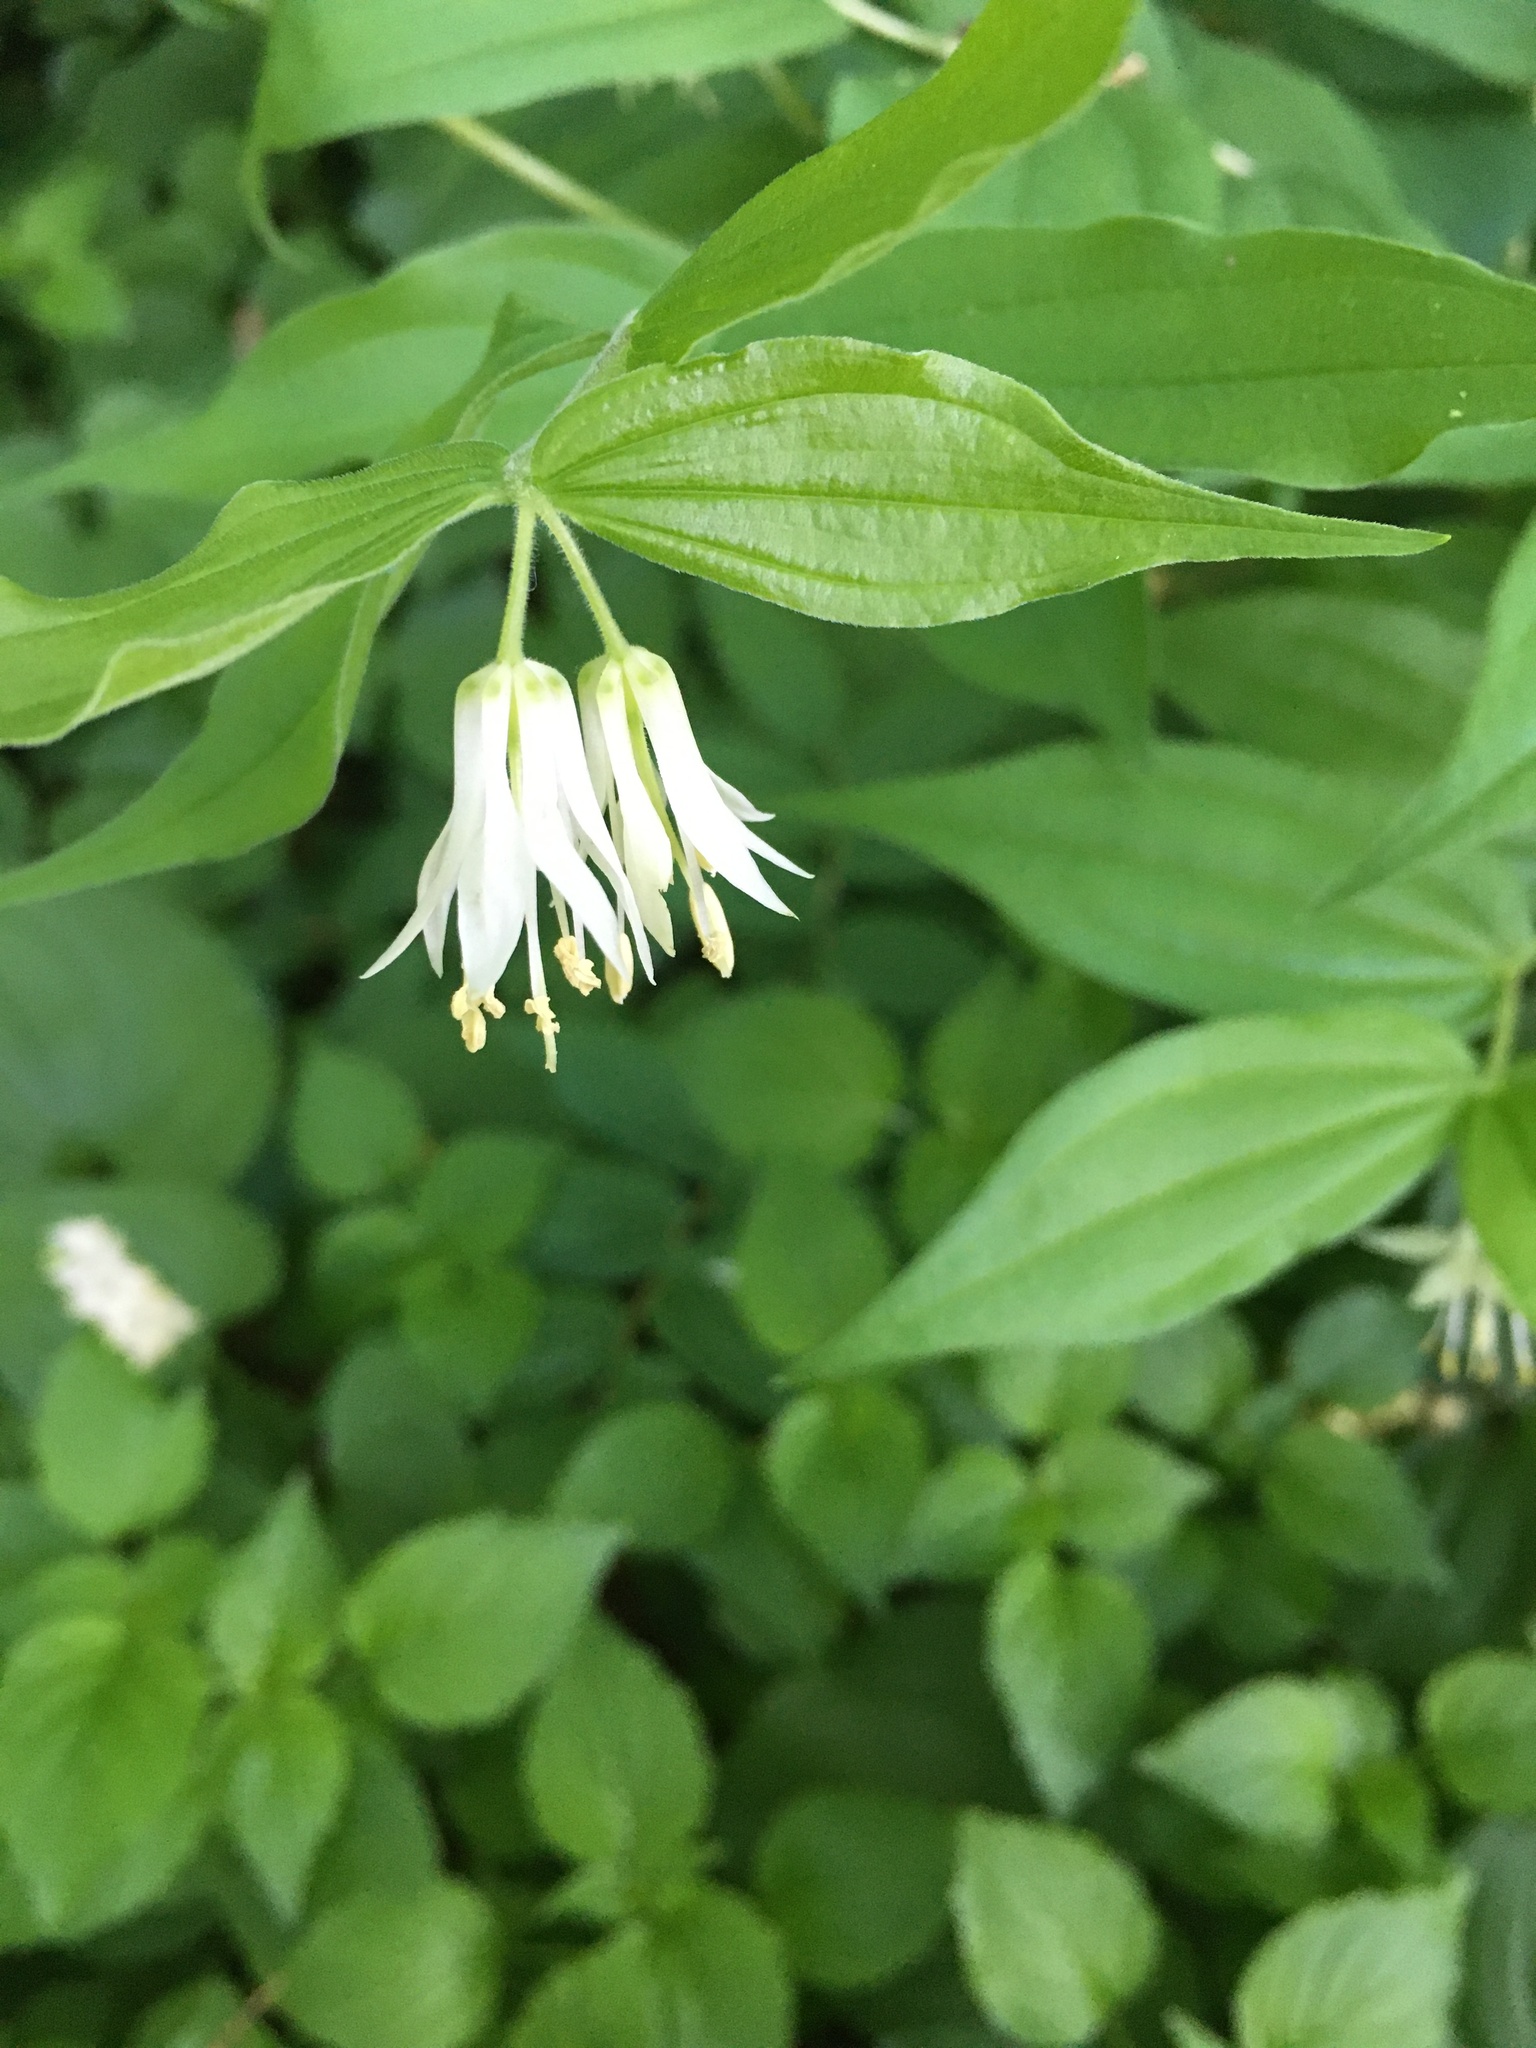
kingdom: Plantae
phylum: Tracheophyta
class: Liliopsida
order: Liliales
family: Liliaceae
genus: Prosartes
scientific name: Prosartes hookeri
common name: Fairy-bells
